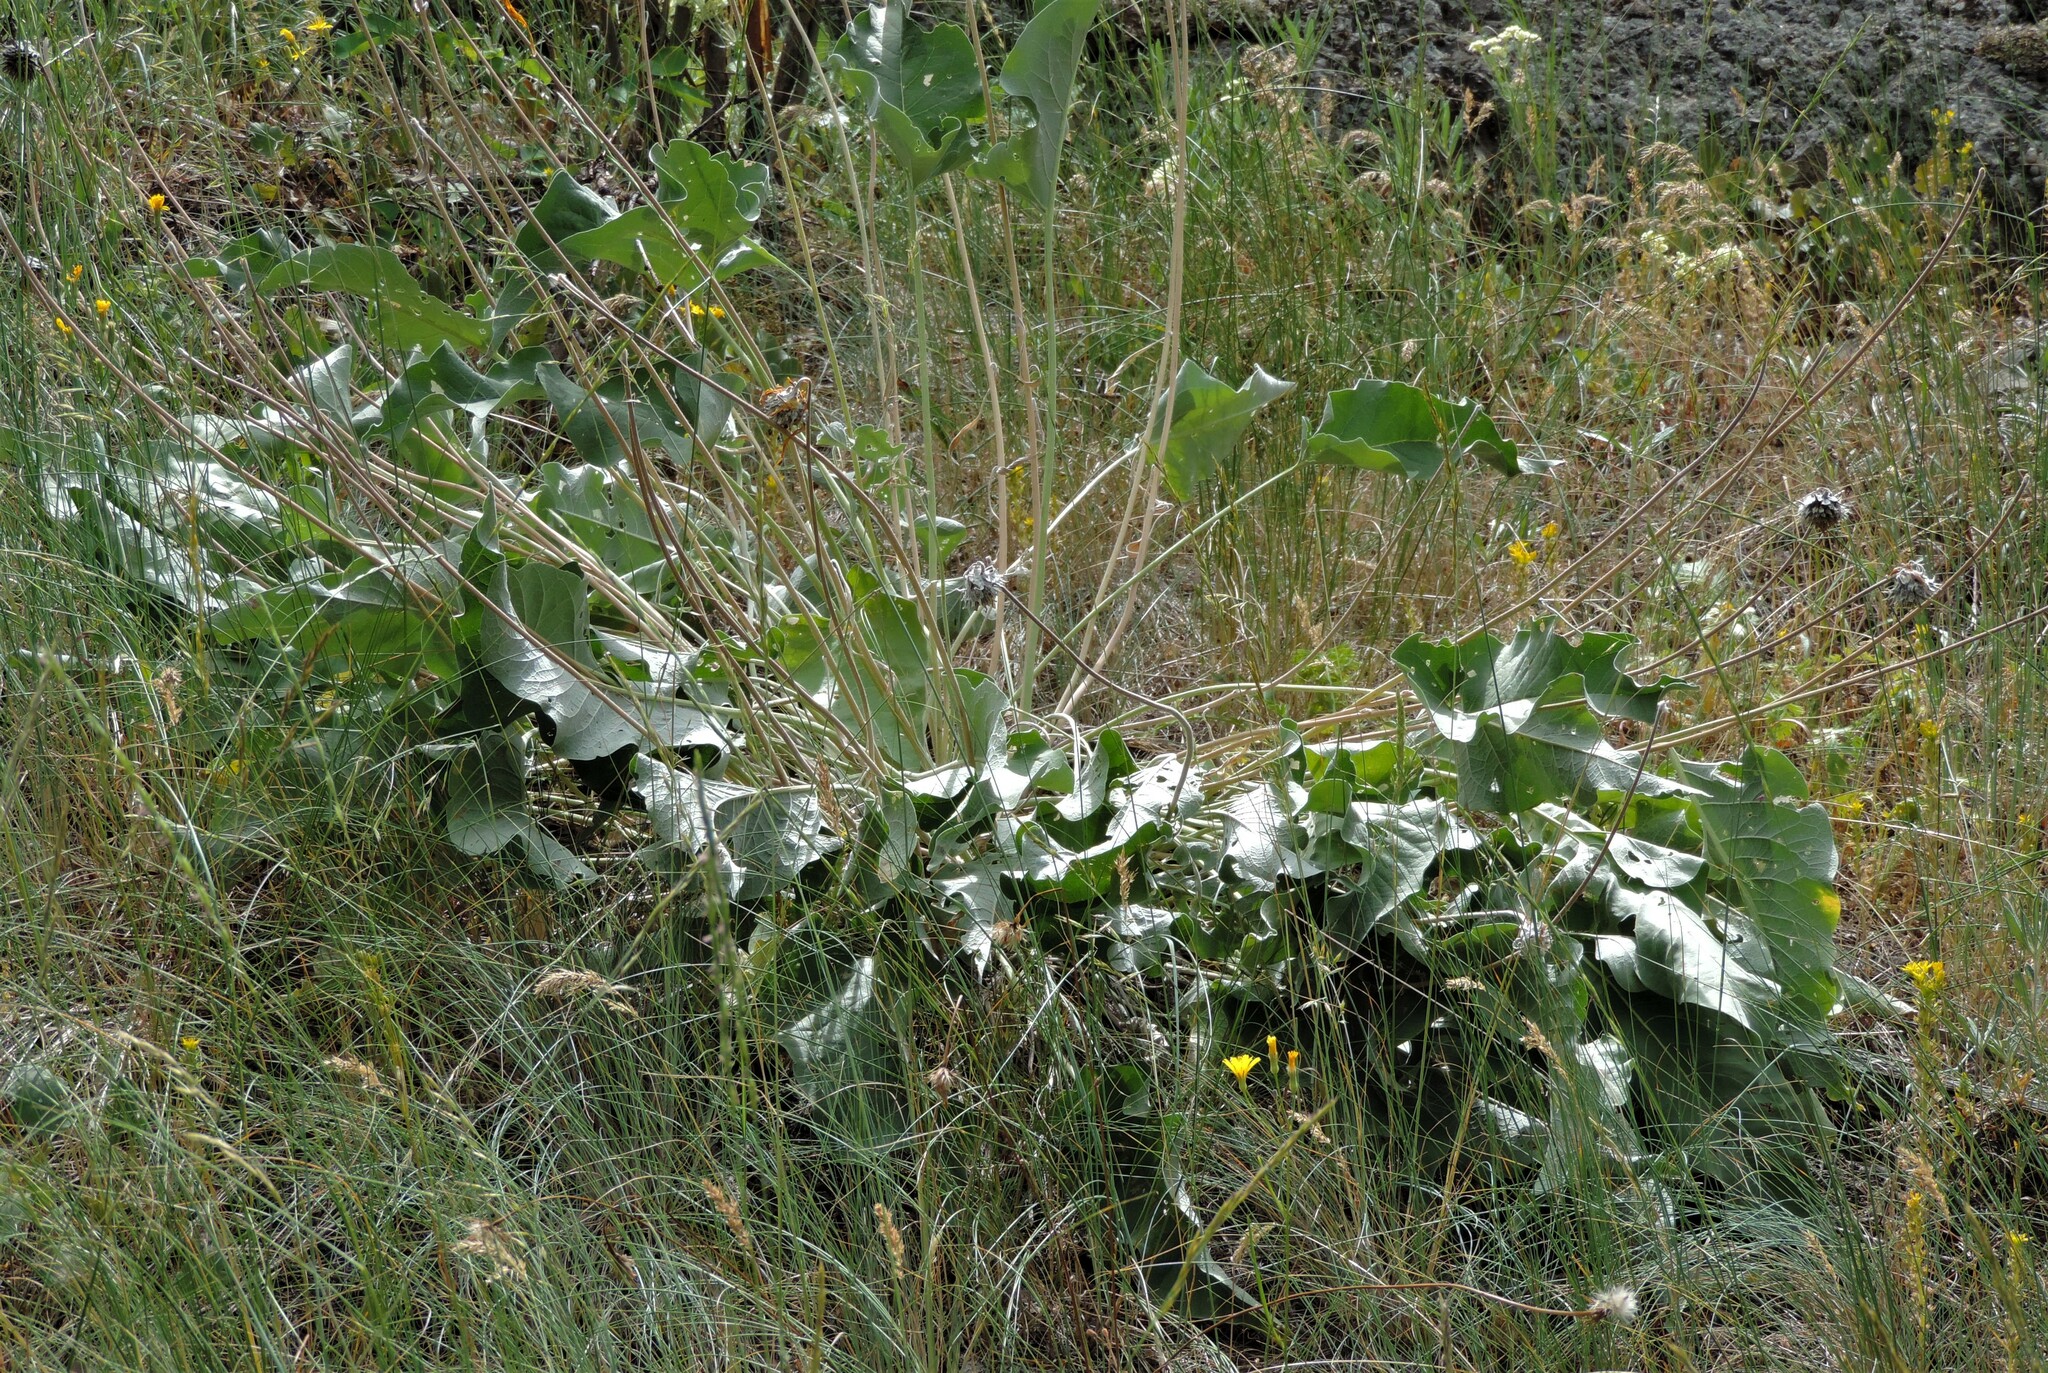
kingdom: Plantae
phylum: Tracheophyta
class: Magnoliopsida
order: Asterales
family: Asteraceae
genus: Wyethia
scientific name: Wyethia sagittata
